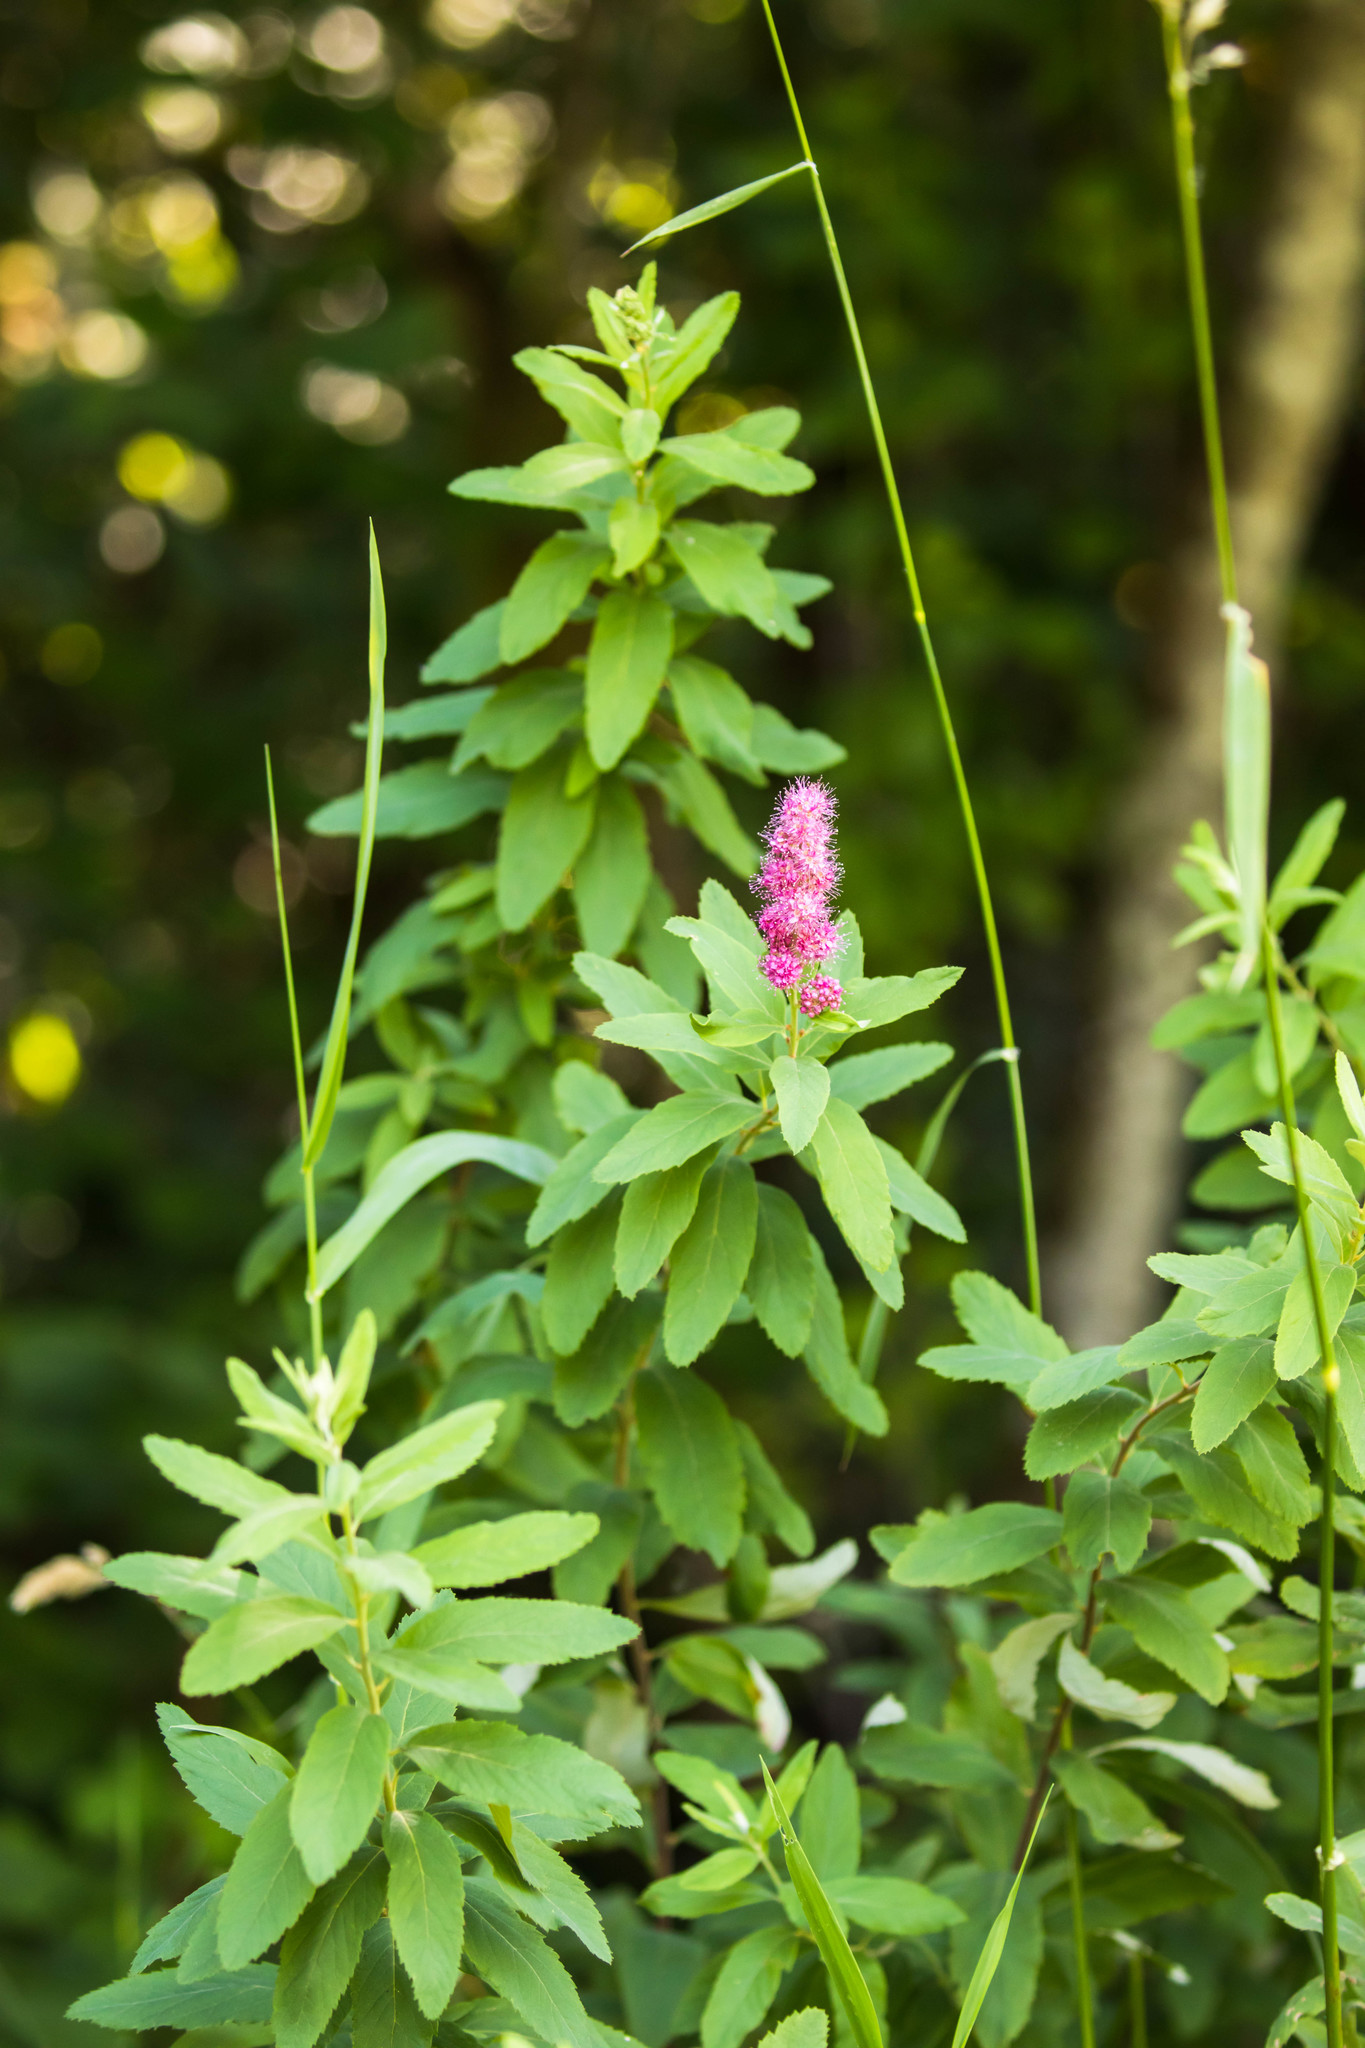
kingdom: Plantae
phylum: Tracheophyta
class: Magnoliopsida
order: Rosales
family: Rosaceae
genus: Spiraea
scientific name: Spiraea douglasii
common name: Steeplebush
